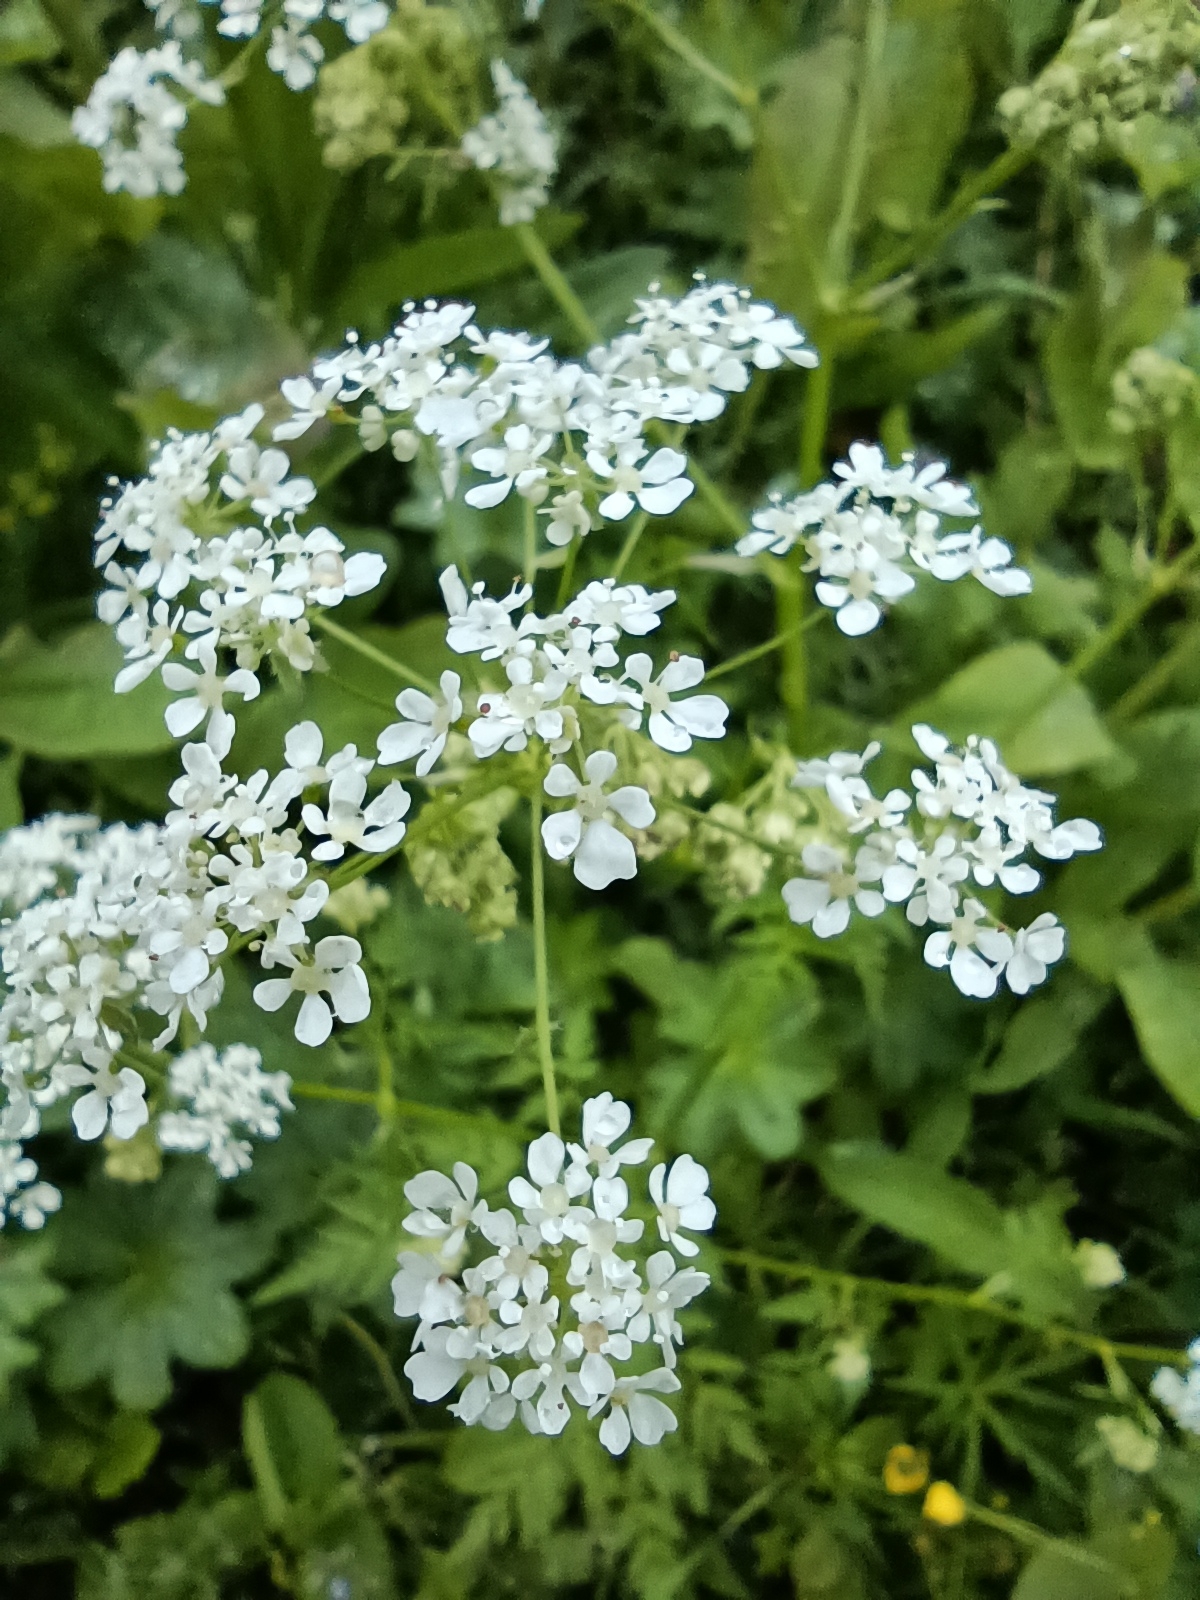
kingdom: Plantae
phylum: Tracheophyta
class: Magnoliopsida
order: Apiales
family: Apiaceae
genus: Anthriscus
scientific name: Anthriscus sylvestris
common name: Cow parsley
